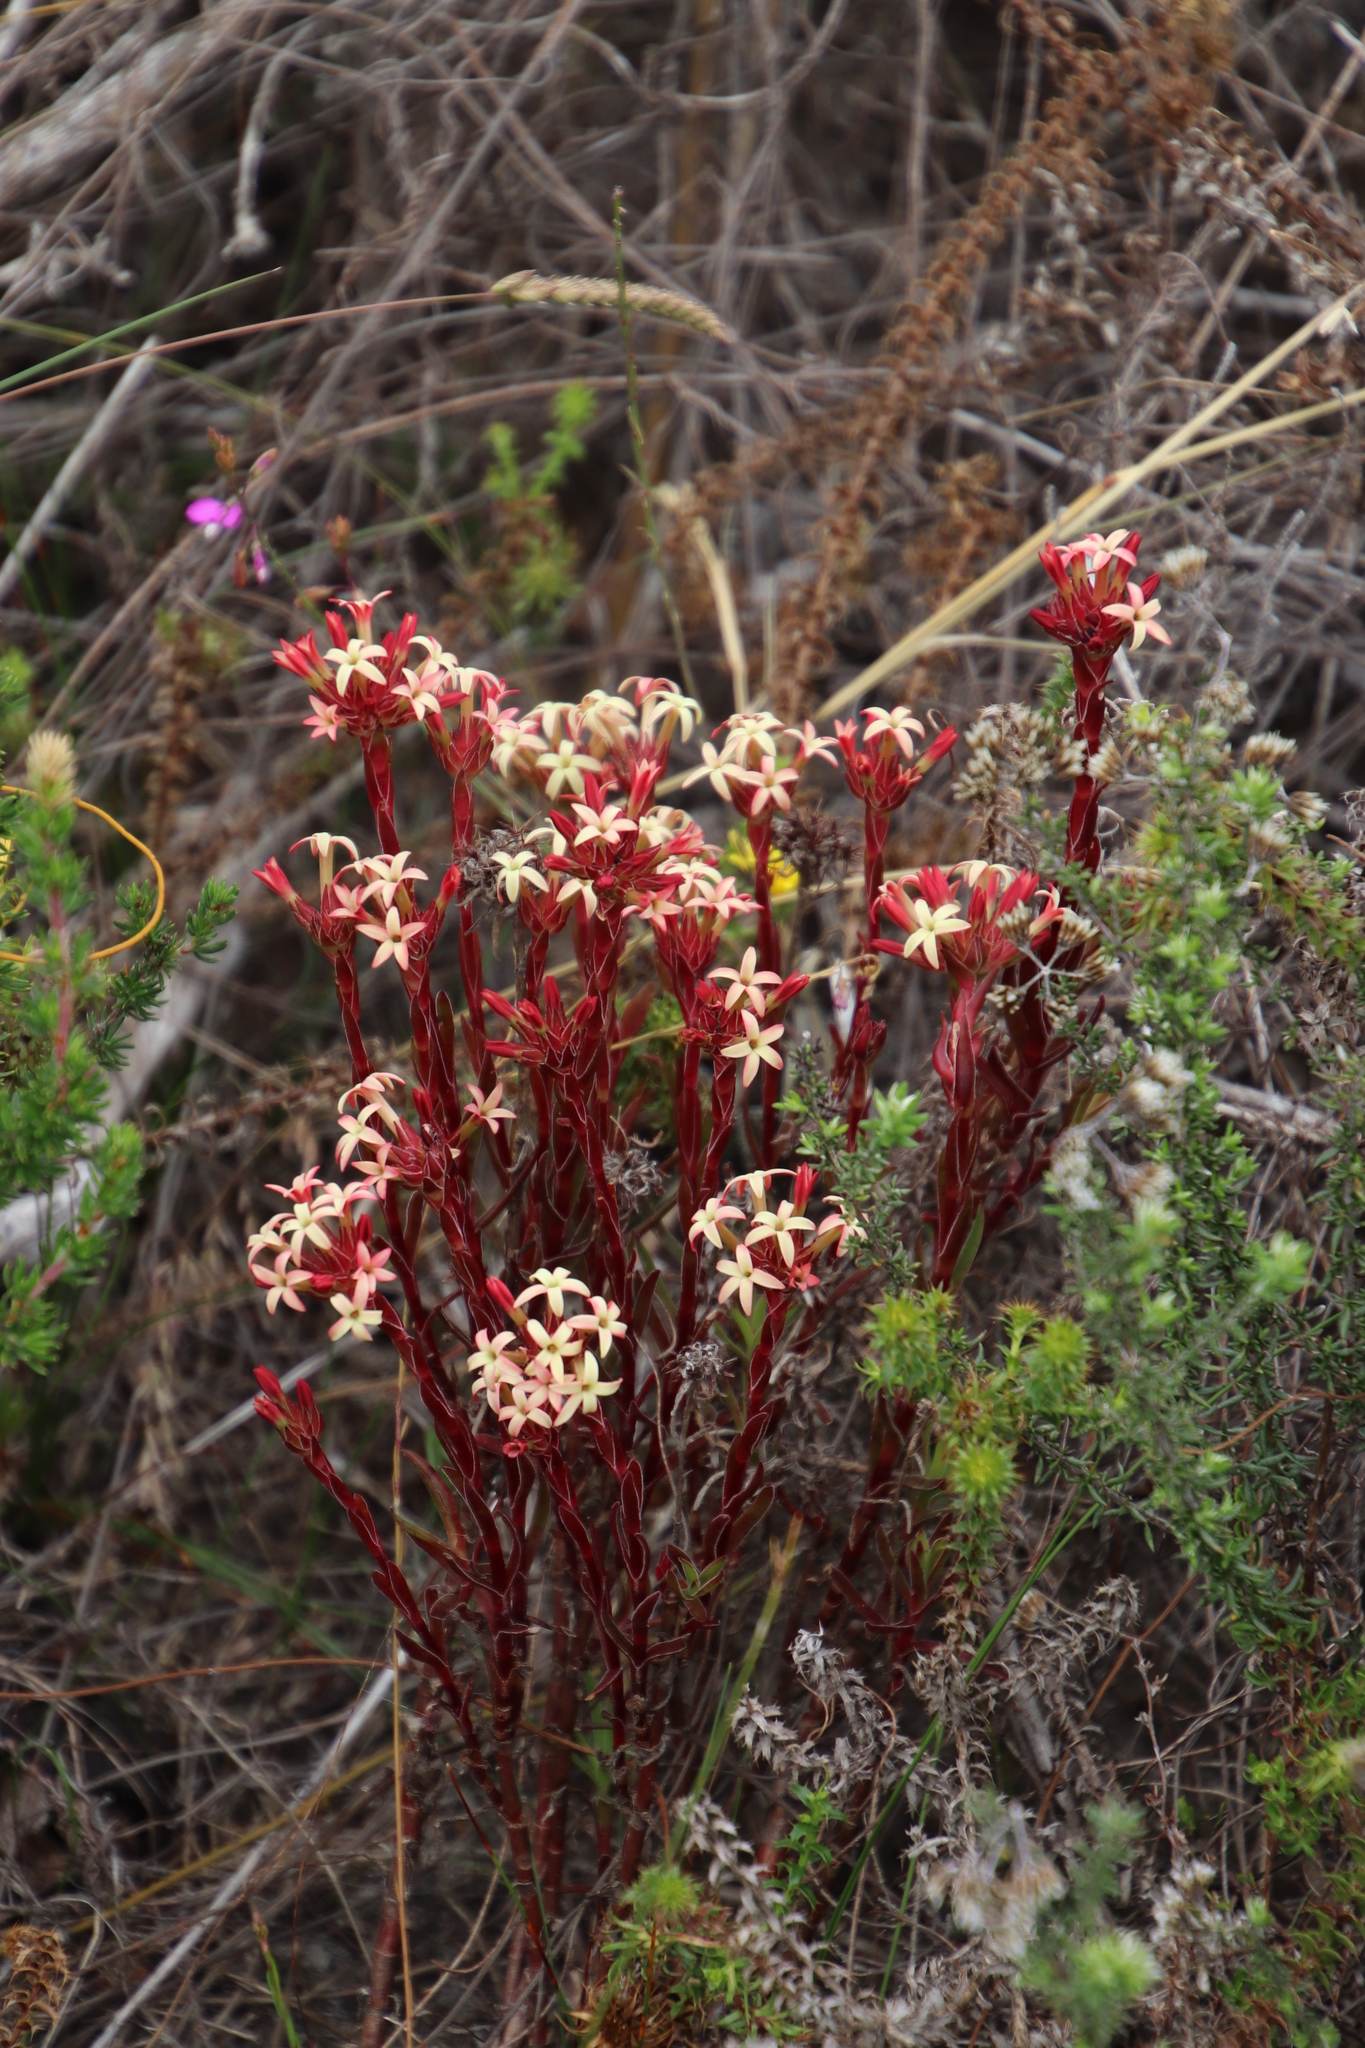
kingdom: Plantae
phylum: Tracheophyta
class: Magnoliopsida
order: Saxifragales
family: Crassulaceae
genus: Crassula
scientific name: Crassula fascicularis
